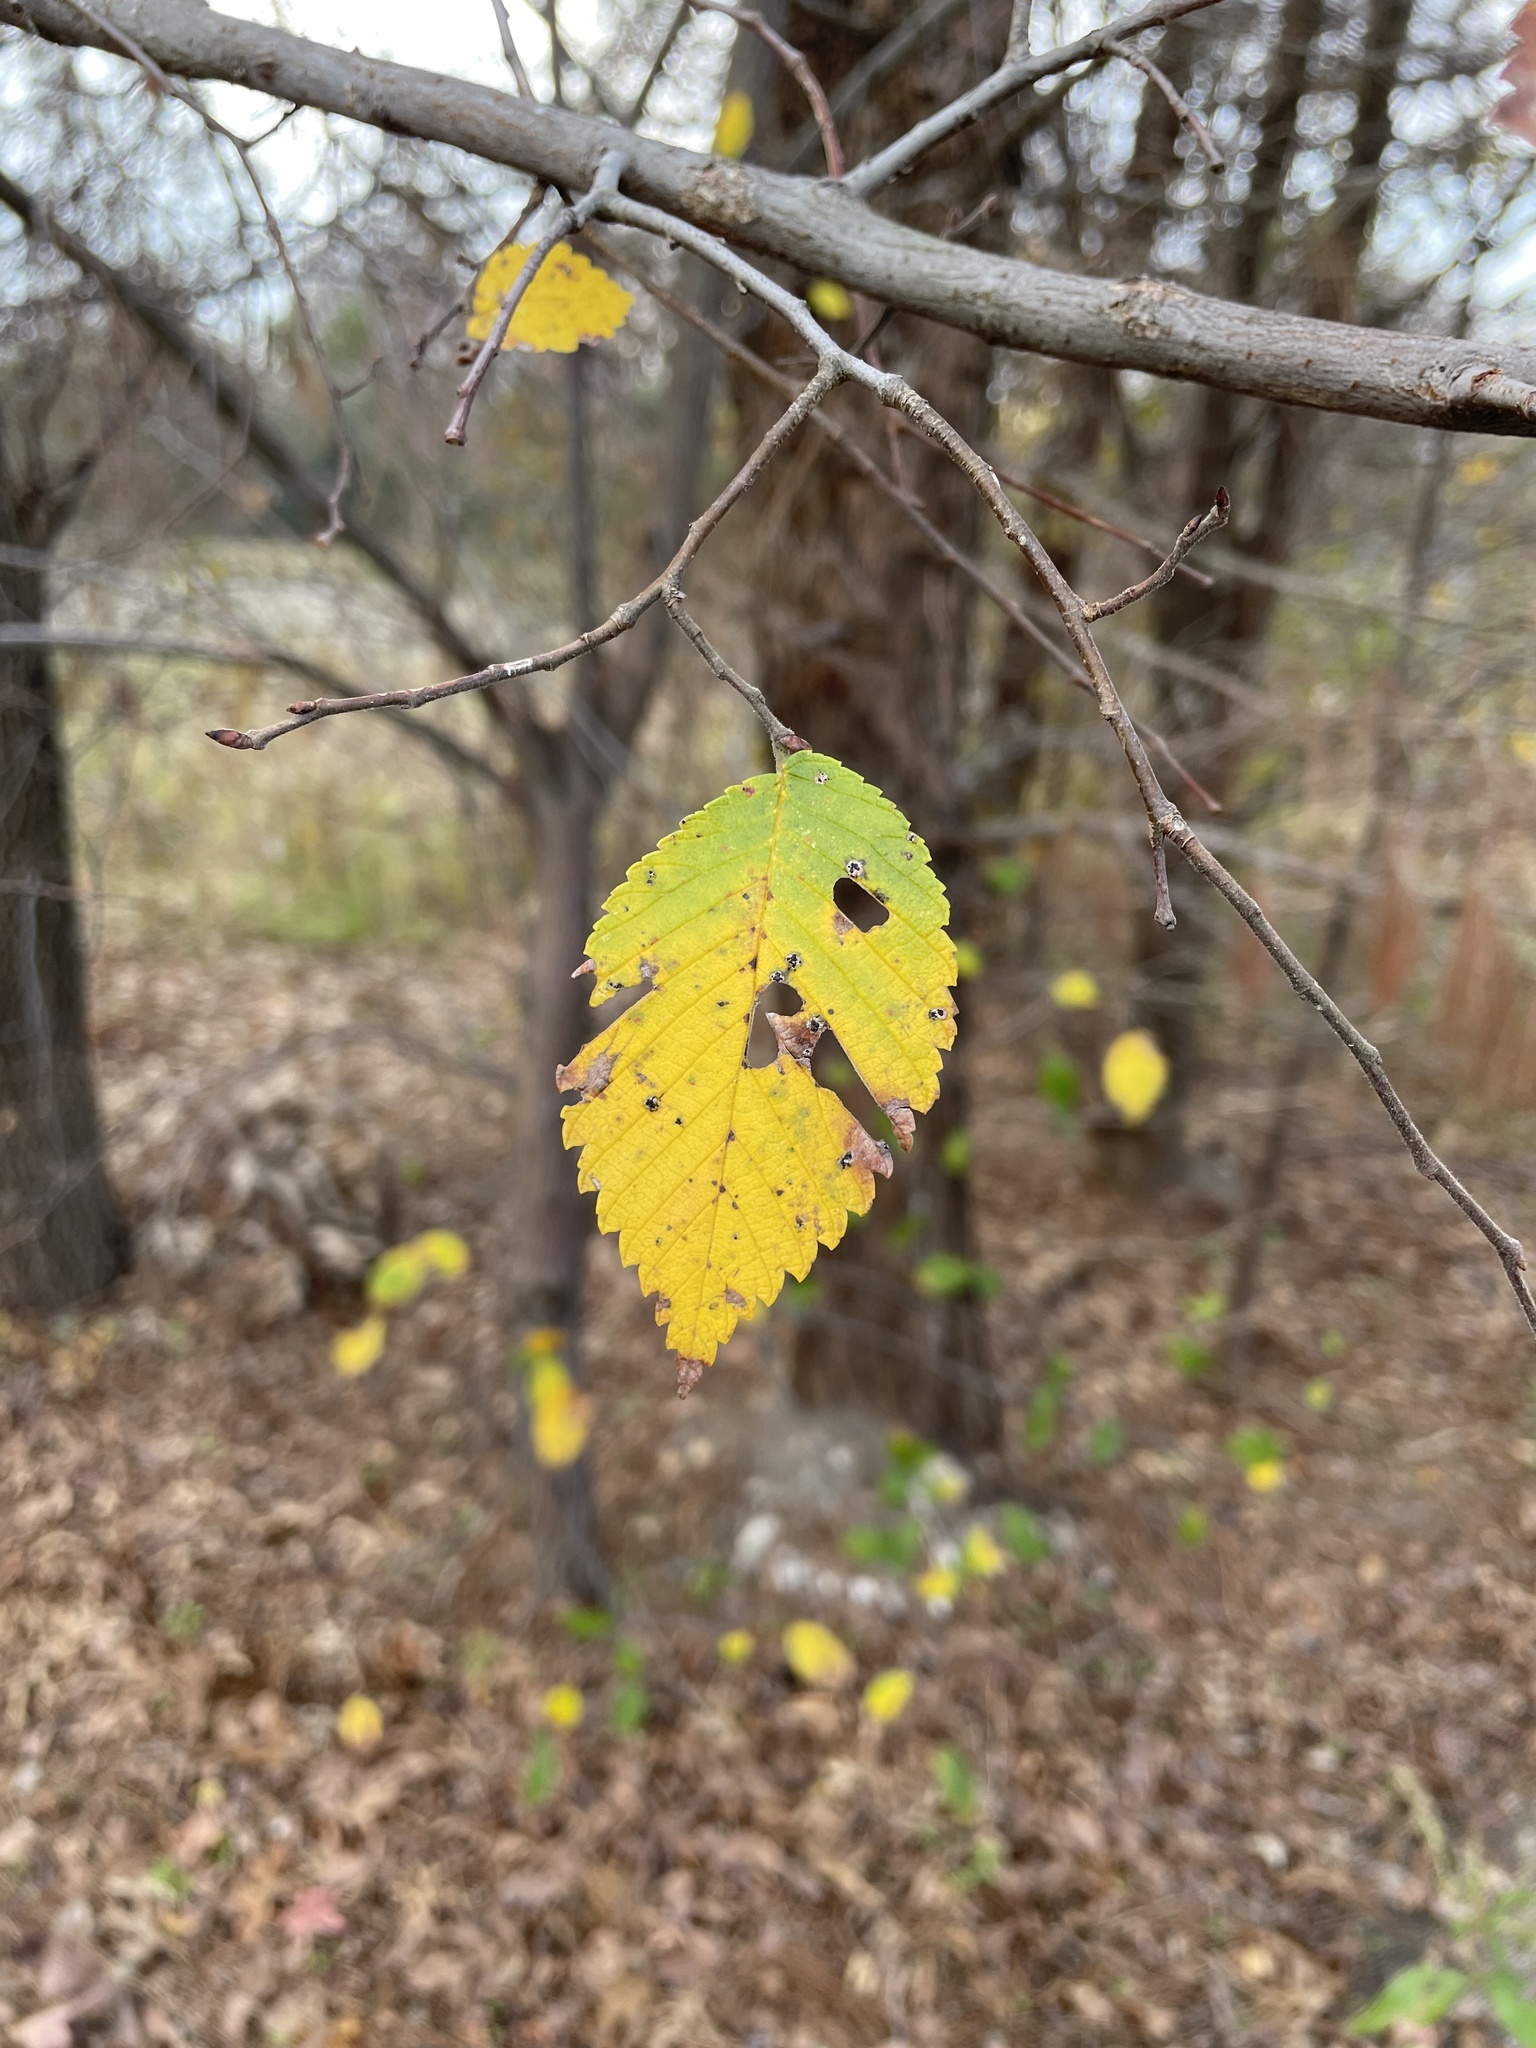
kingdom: Plantae
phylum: Tracheophyta
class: Magnoliopsida
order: Rosales
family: Ulmaceae
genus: Ulmus
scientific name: Ulmus americana
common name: American elm
